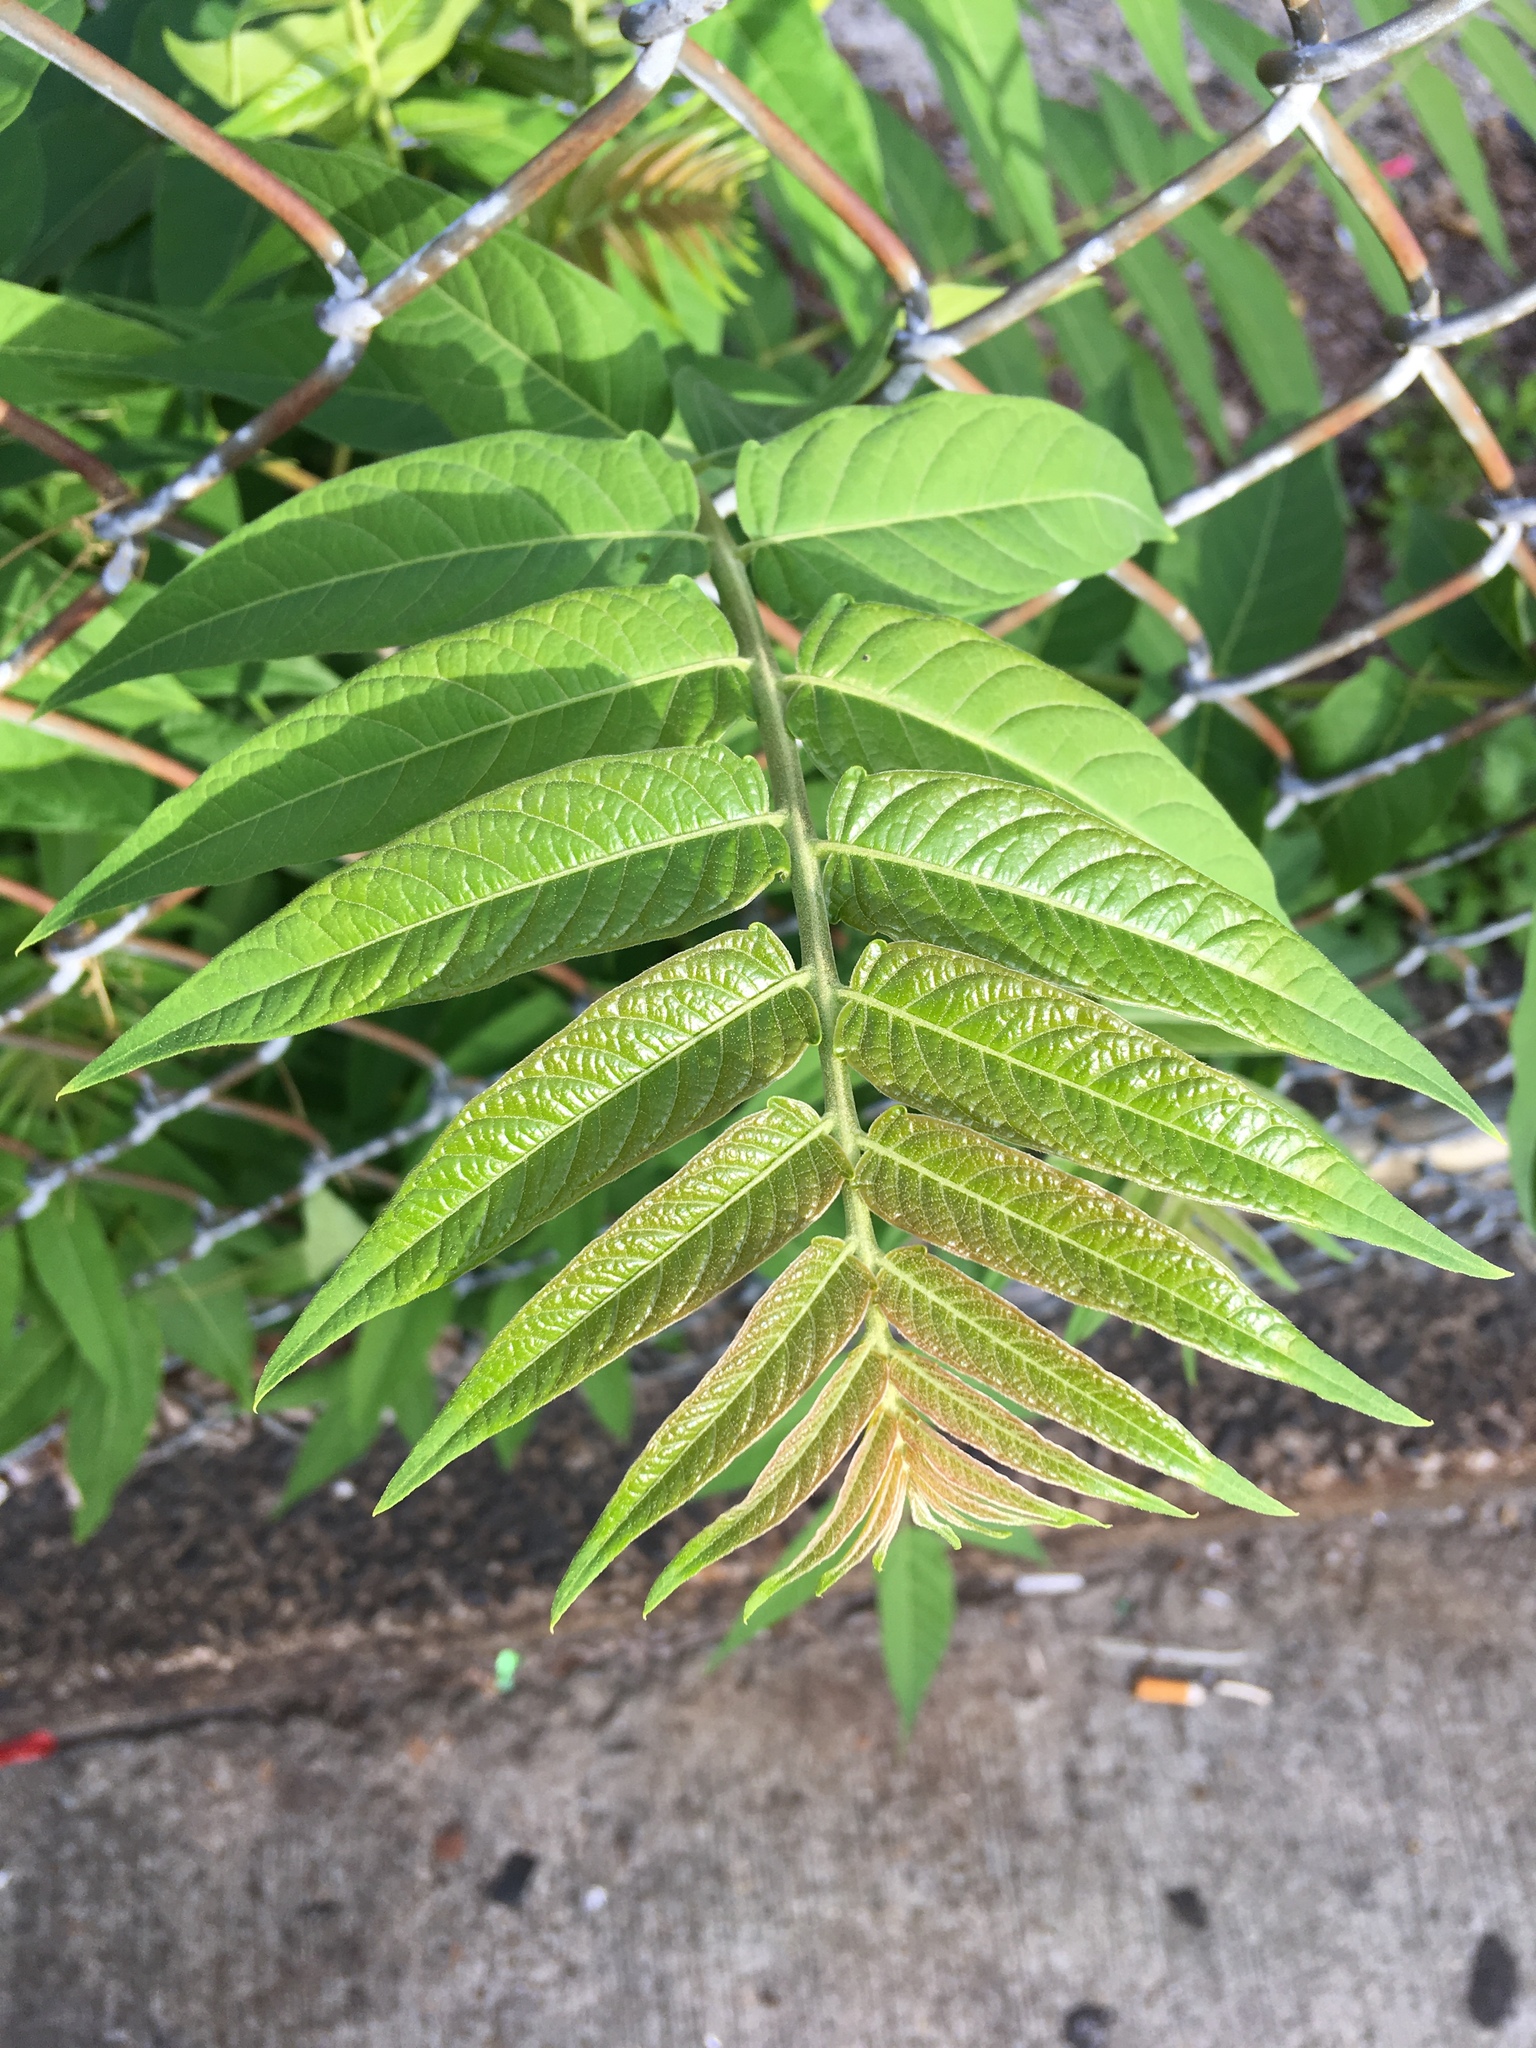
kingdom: Plantae
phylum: Tracheophyta
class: Magnoliopsida
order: Sapindales
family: Simaroubaceae
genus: Ailanthus
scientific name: Ailanthus altissima
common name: Tree-of-heaven
